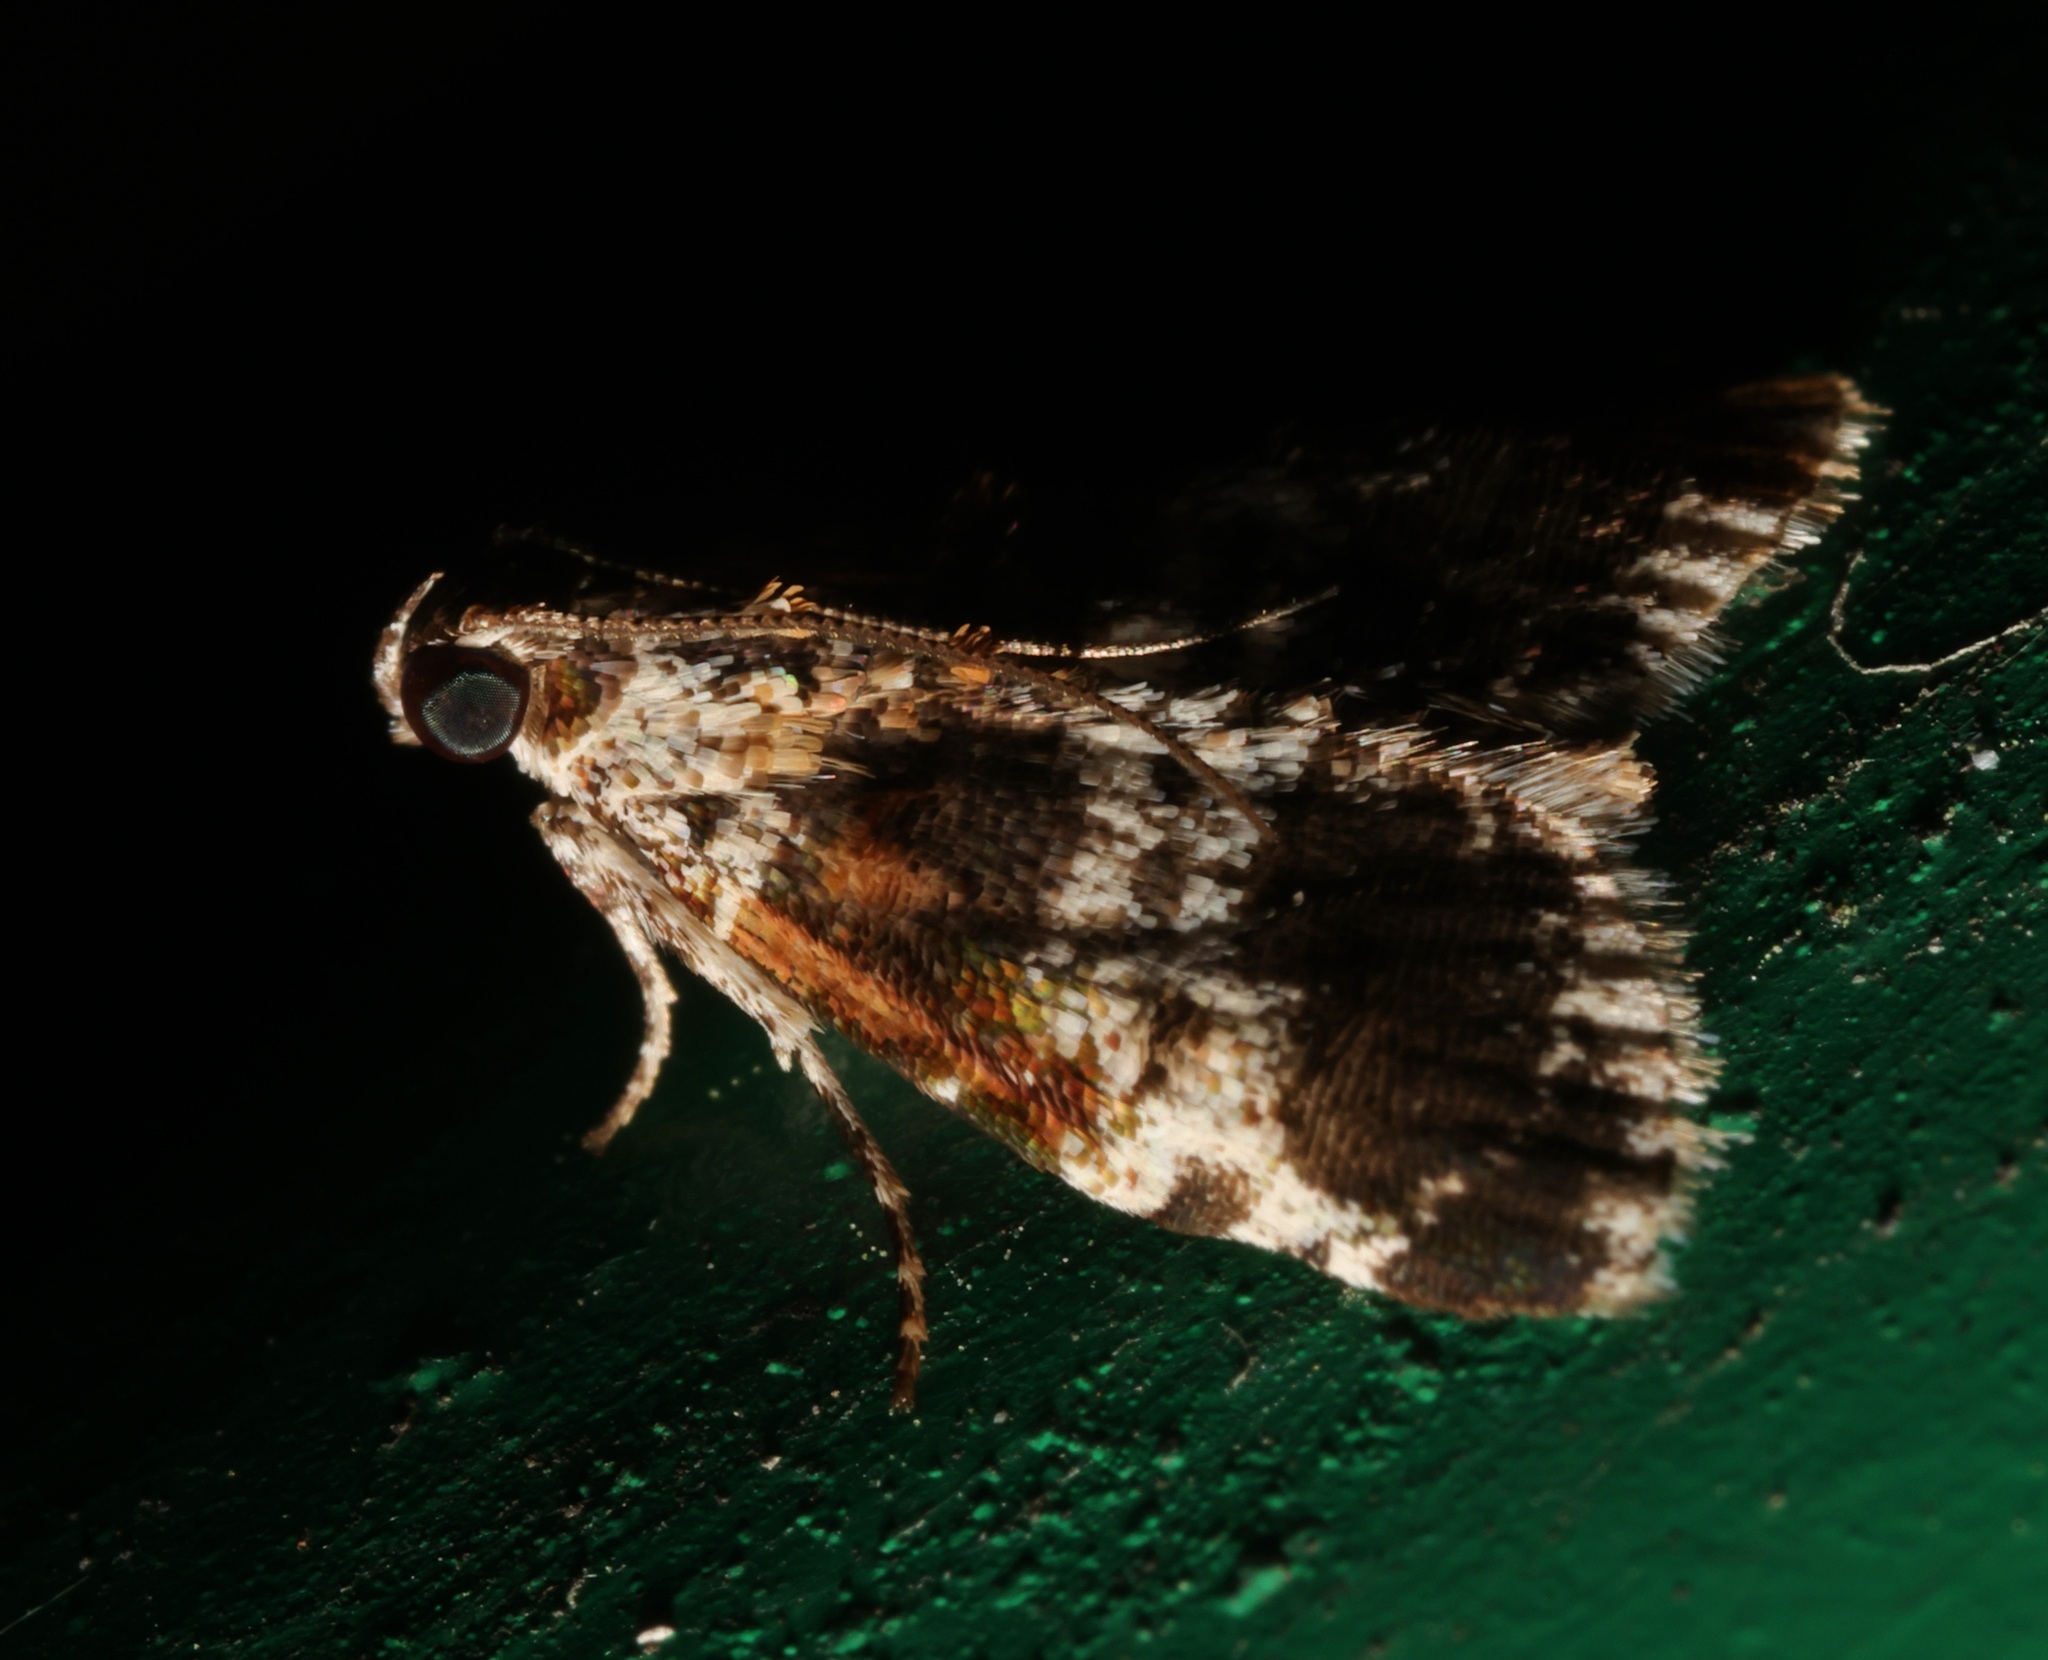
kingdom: Animalia
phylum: Arthropoda
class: Insecta
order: Lepidoptera
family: Pyralidae
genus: Salma
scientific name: Salma
